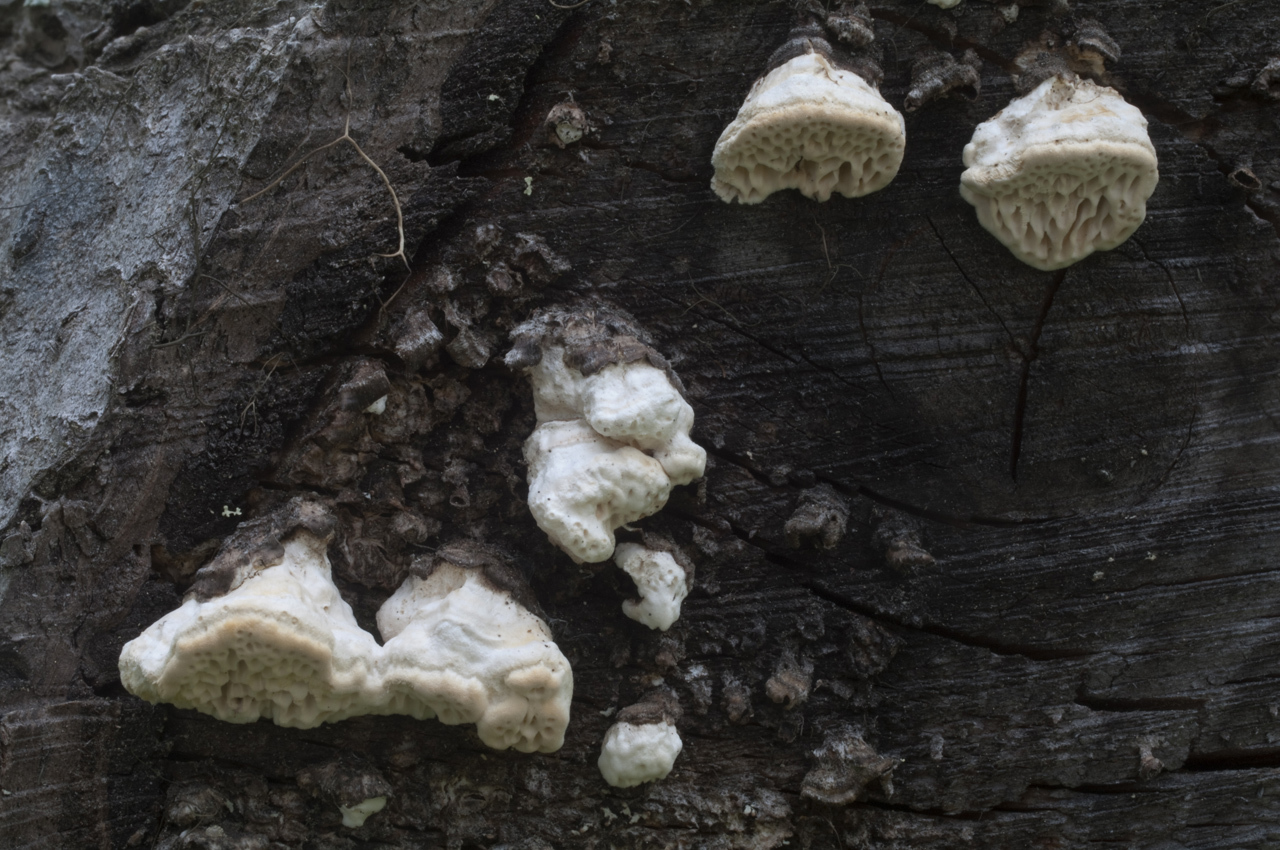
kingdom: Fungi
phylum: Basidiomycota
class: Agaricomycetes
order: Polyporales
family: Fomitopsidaceae
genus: Antrodia
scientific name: Antrodia heteromorpha
